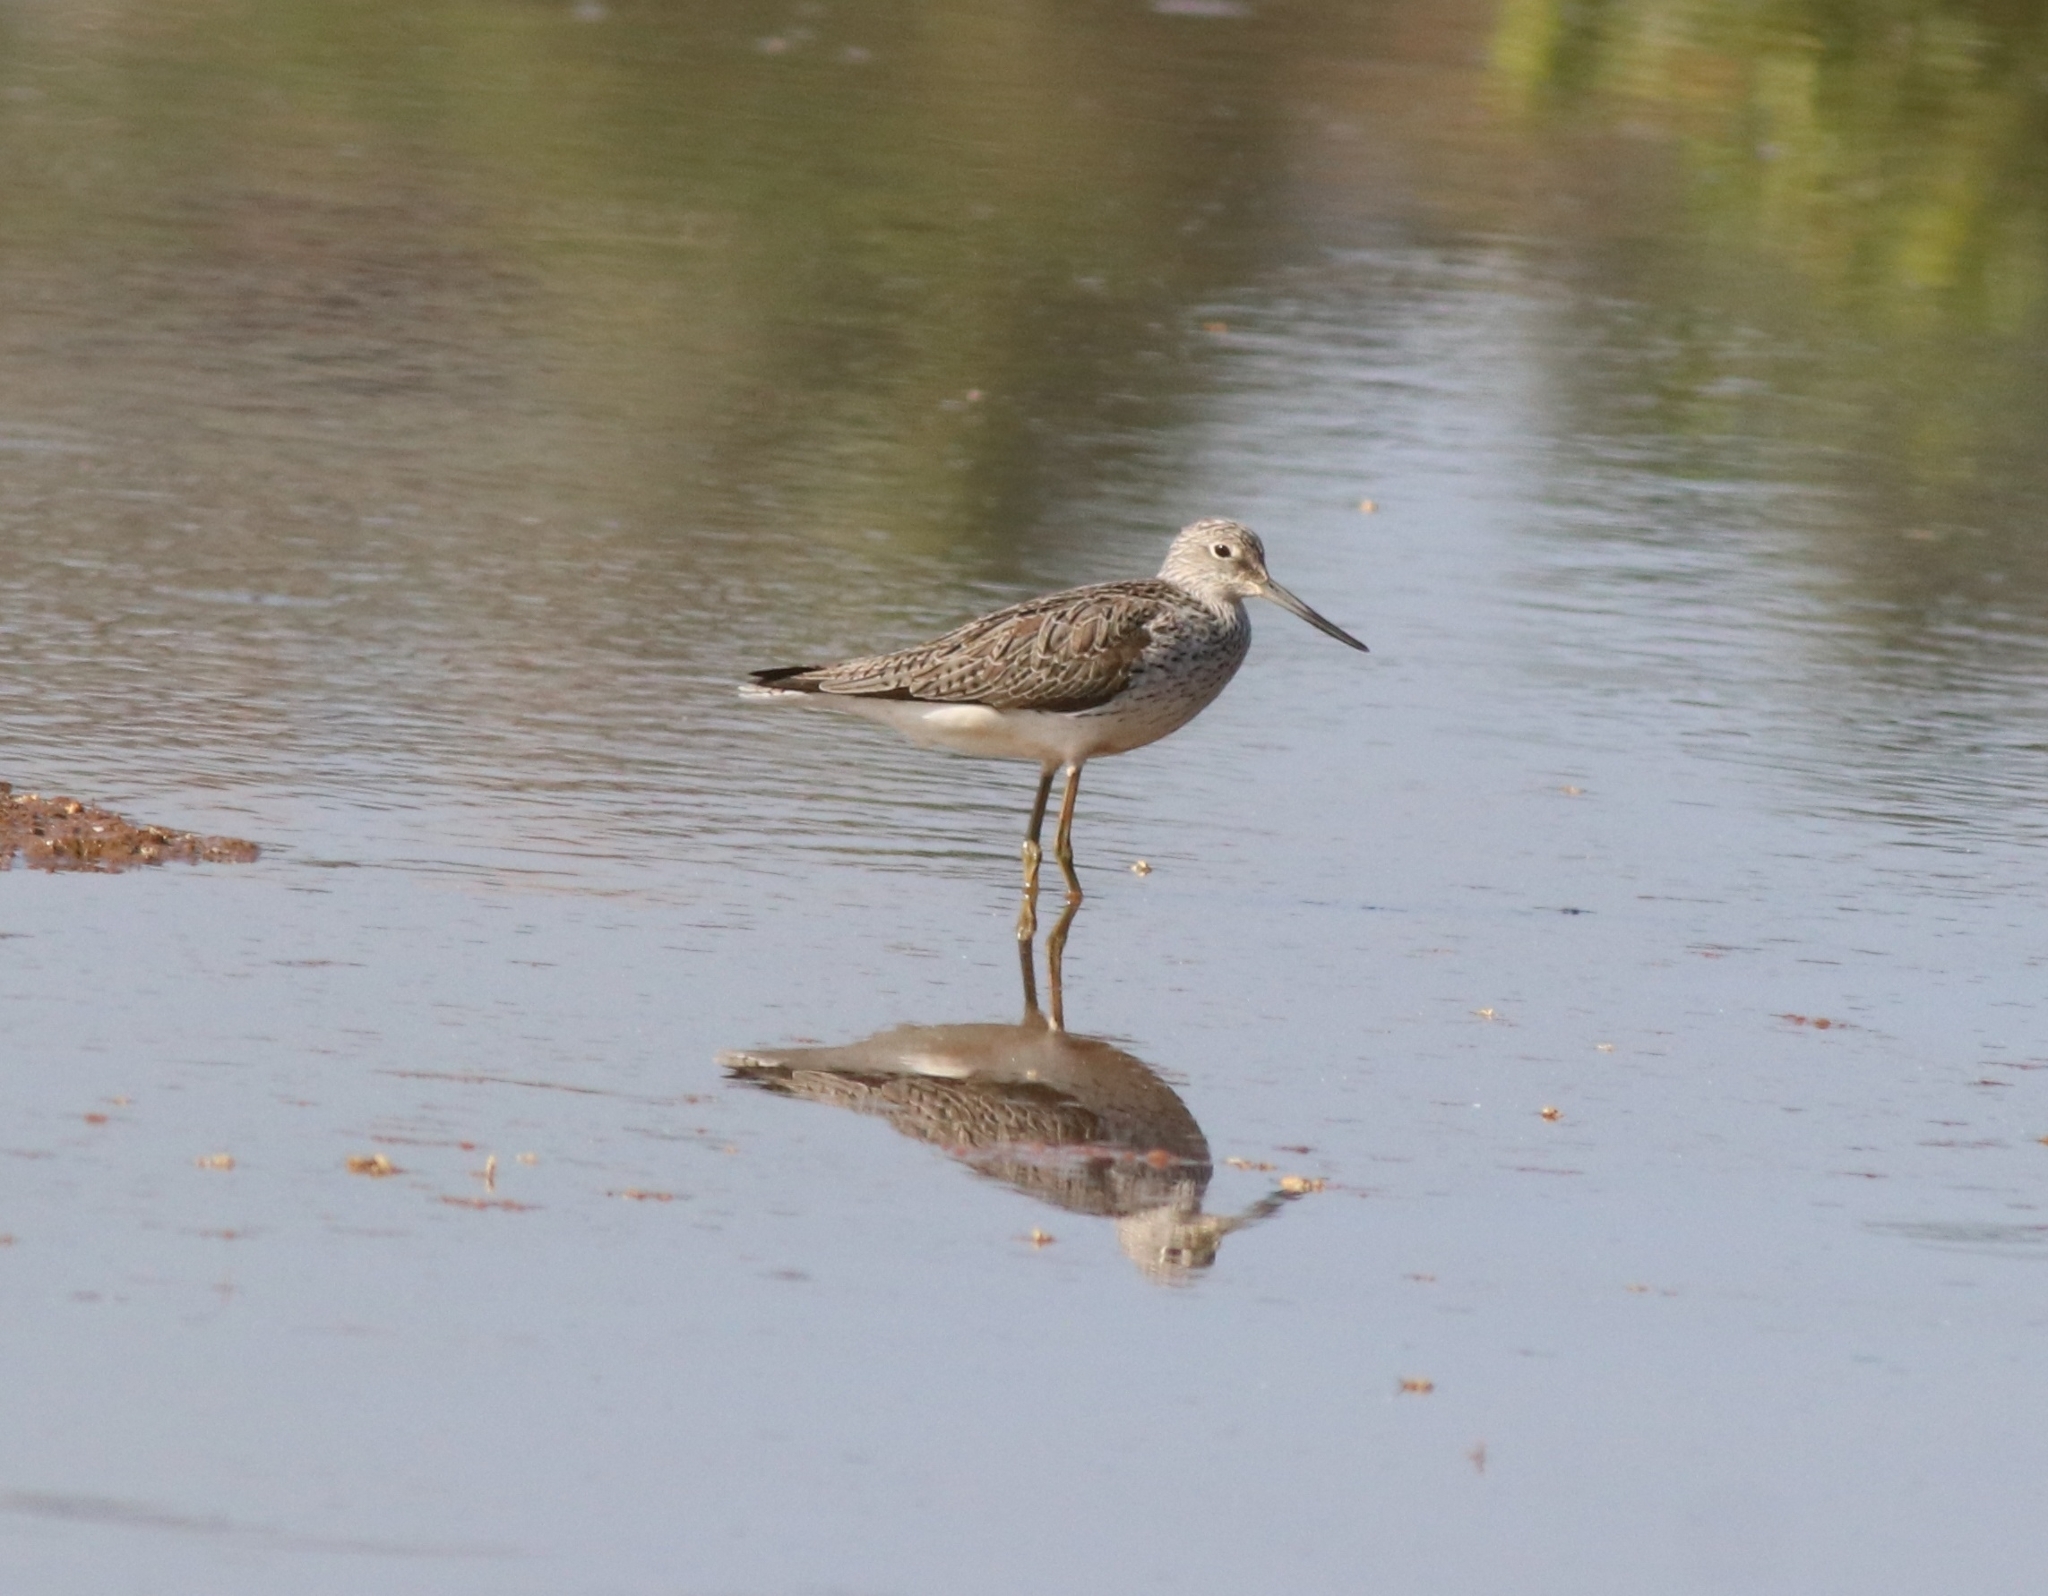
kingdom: Animalia
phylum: Chordata
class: Aves
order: Charadriiformes
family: Scolopacidae
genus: Tringa
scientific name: Tringa nebularia
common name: Common greenshank
